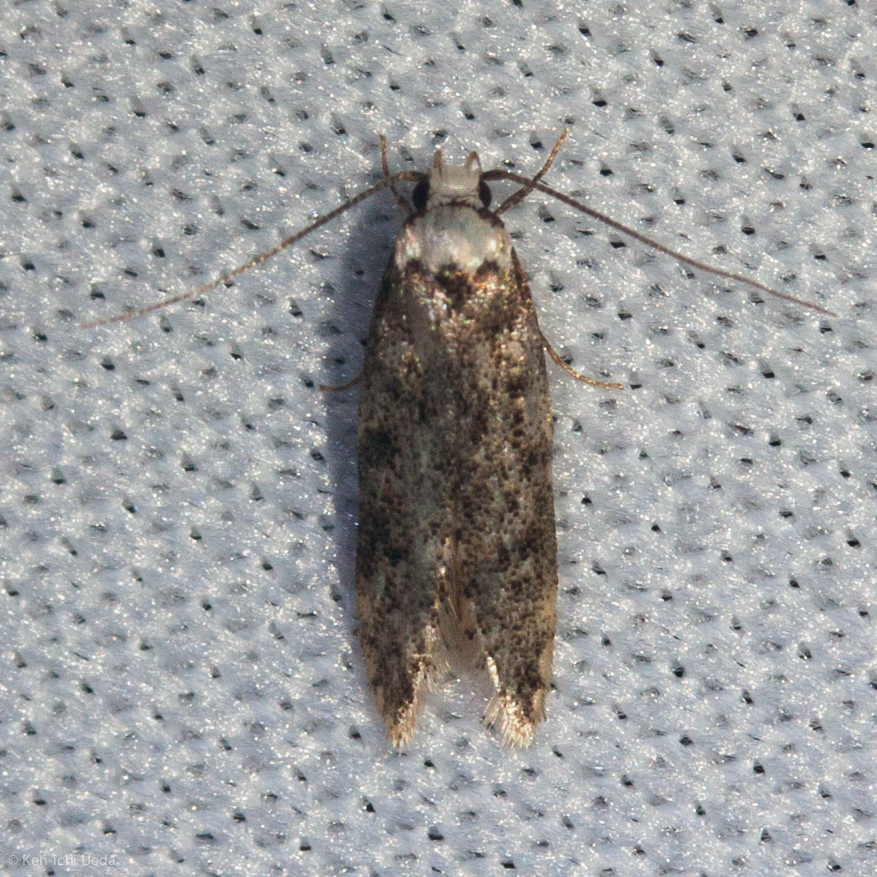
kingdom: Animalia
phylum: Arthropoda
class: Insecta
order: Lepidoptera
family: Oecophoridae
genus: Endrosis
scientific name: Endrosis sarcitrella
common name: White-shouldered house moth
